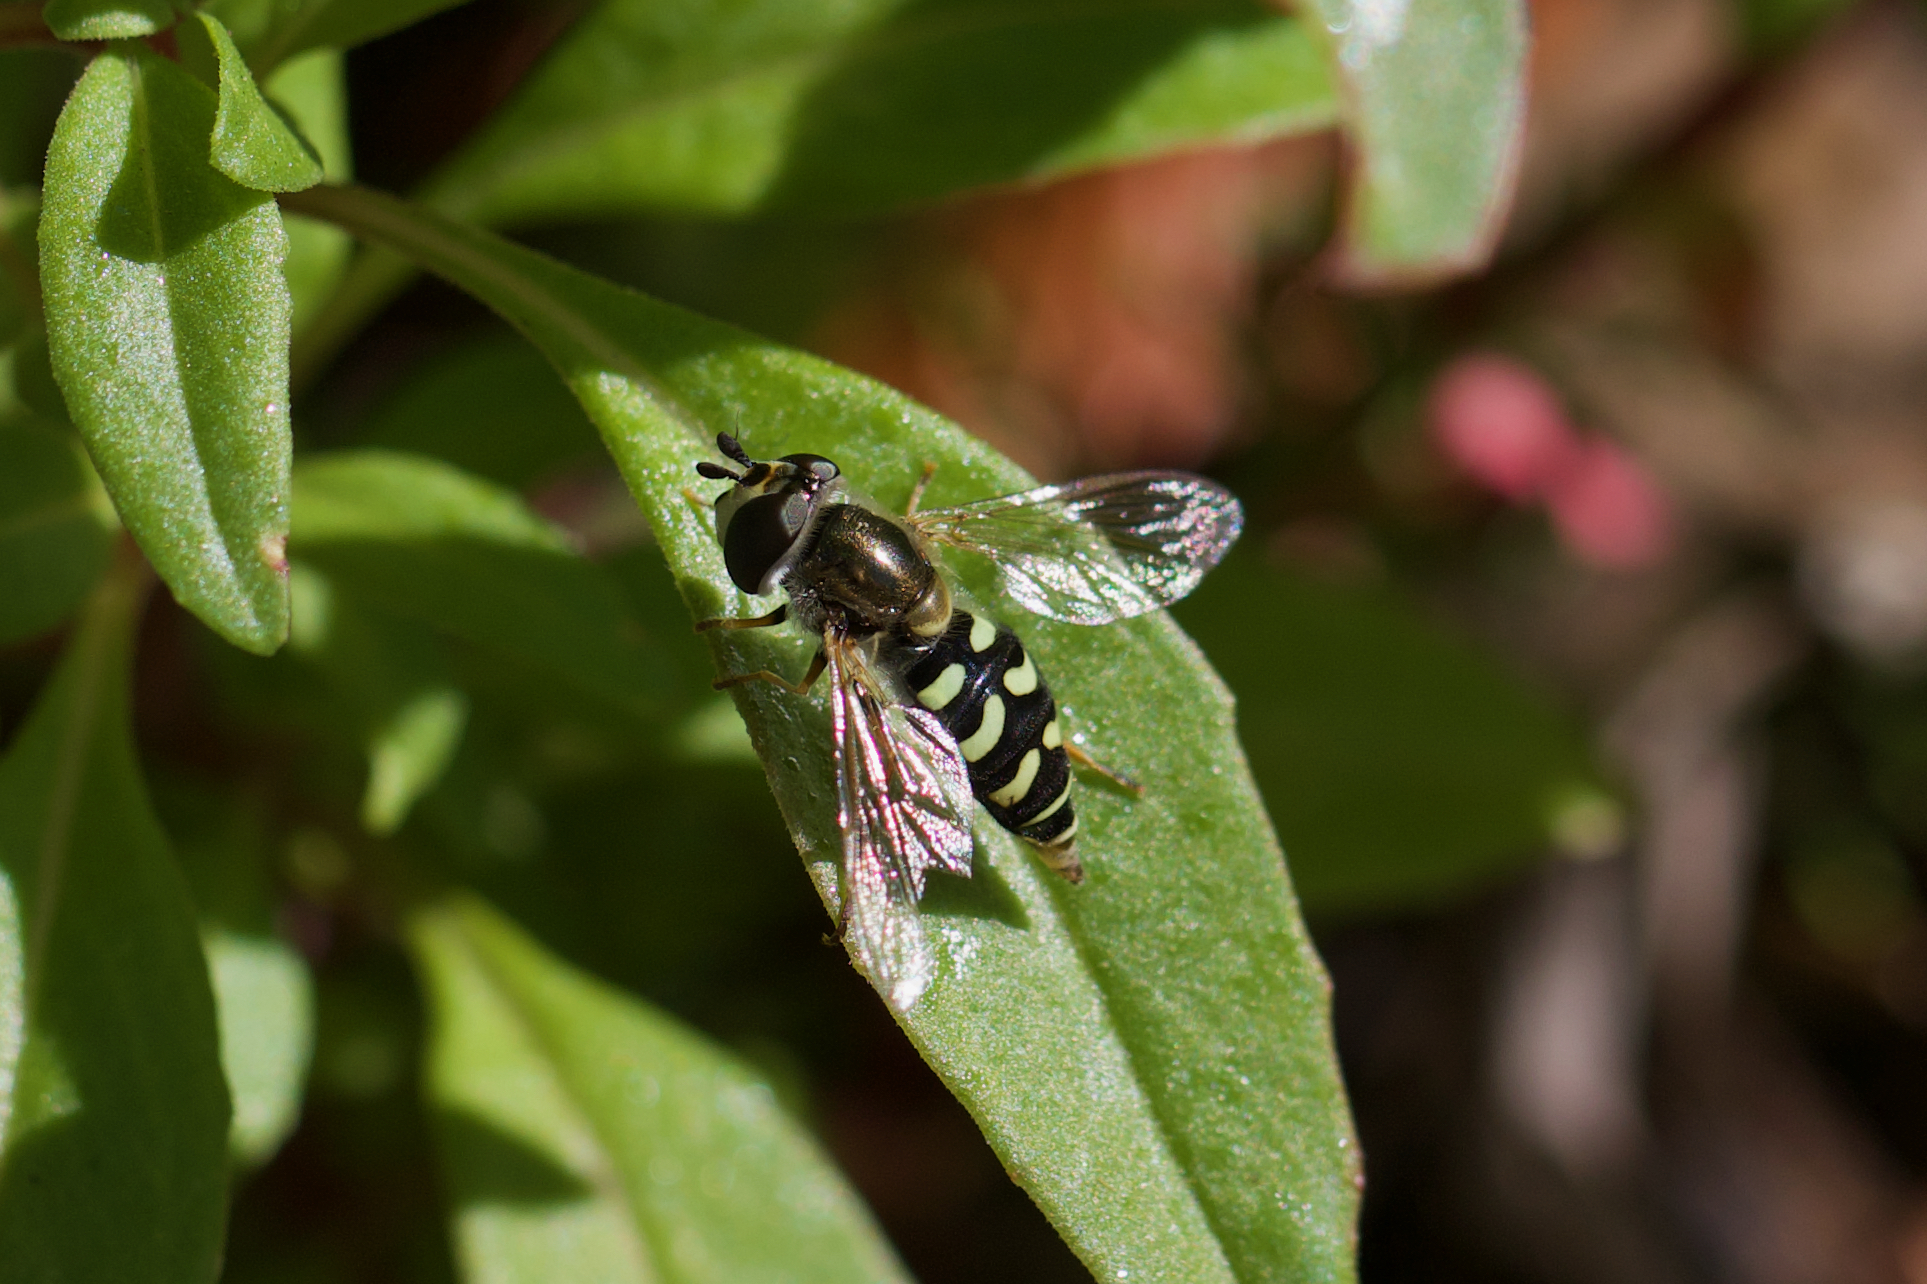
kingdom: Animalia
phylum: Arthropoda
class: Insecta
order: Diptera
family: Syrphidae
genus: Eupeodes
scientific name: Eupeodes volucris
